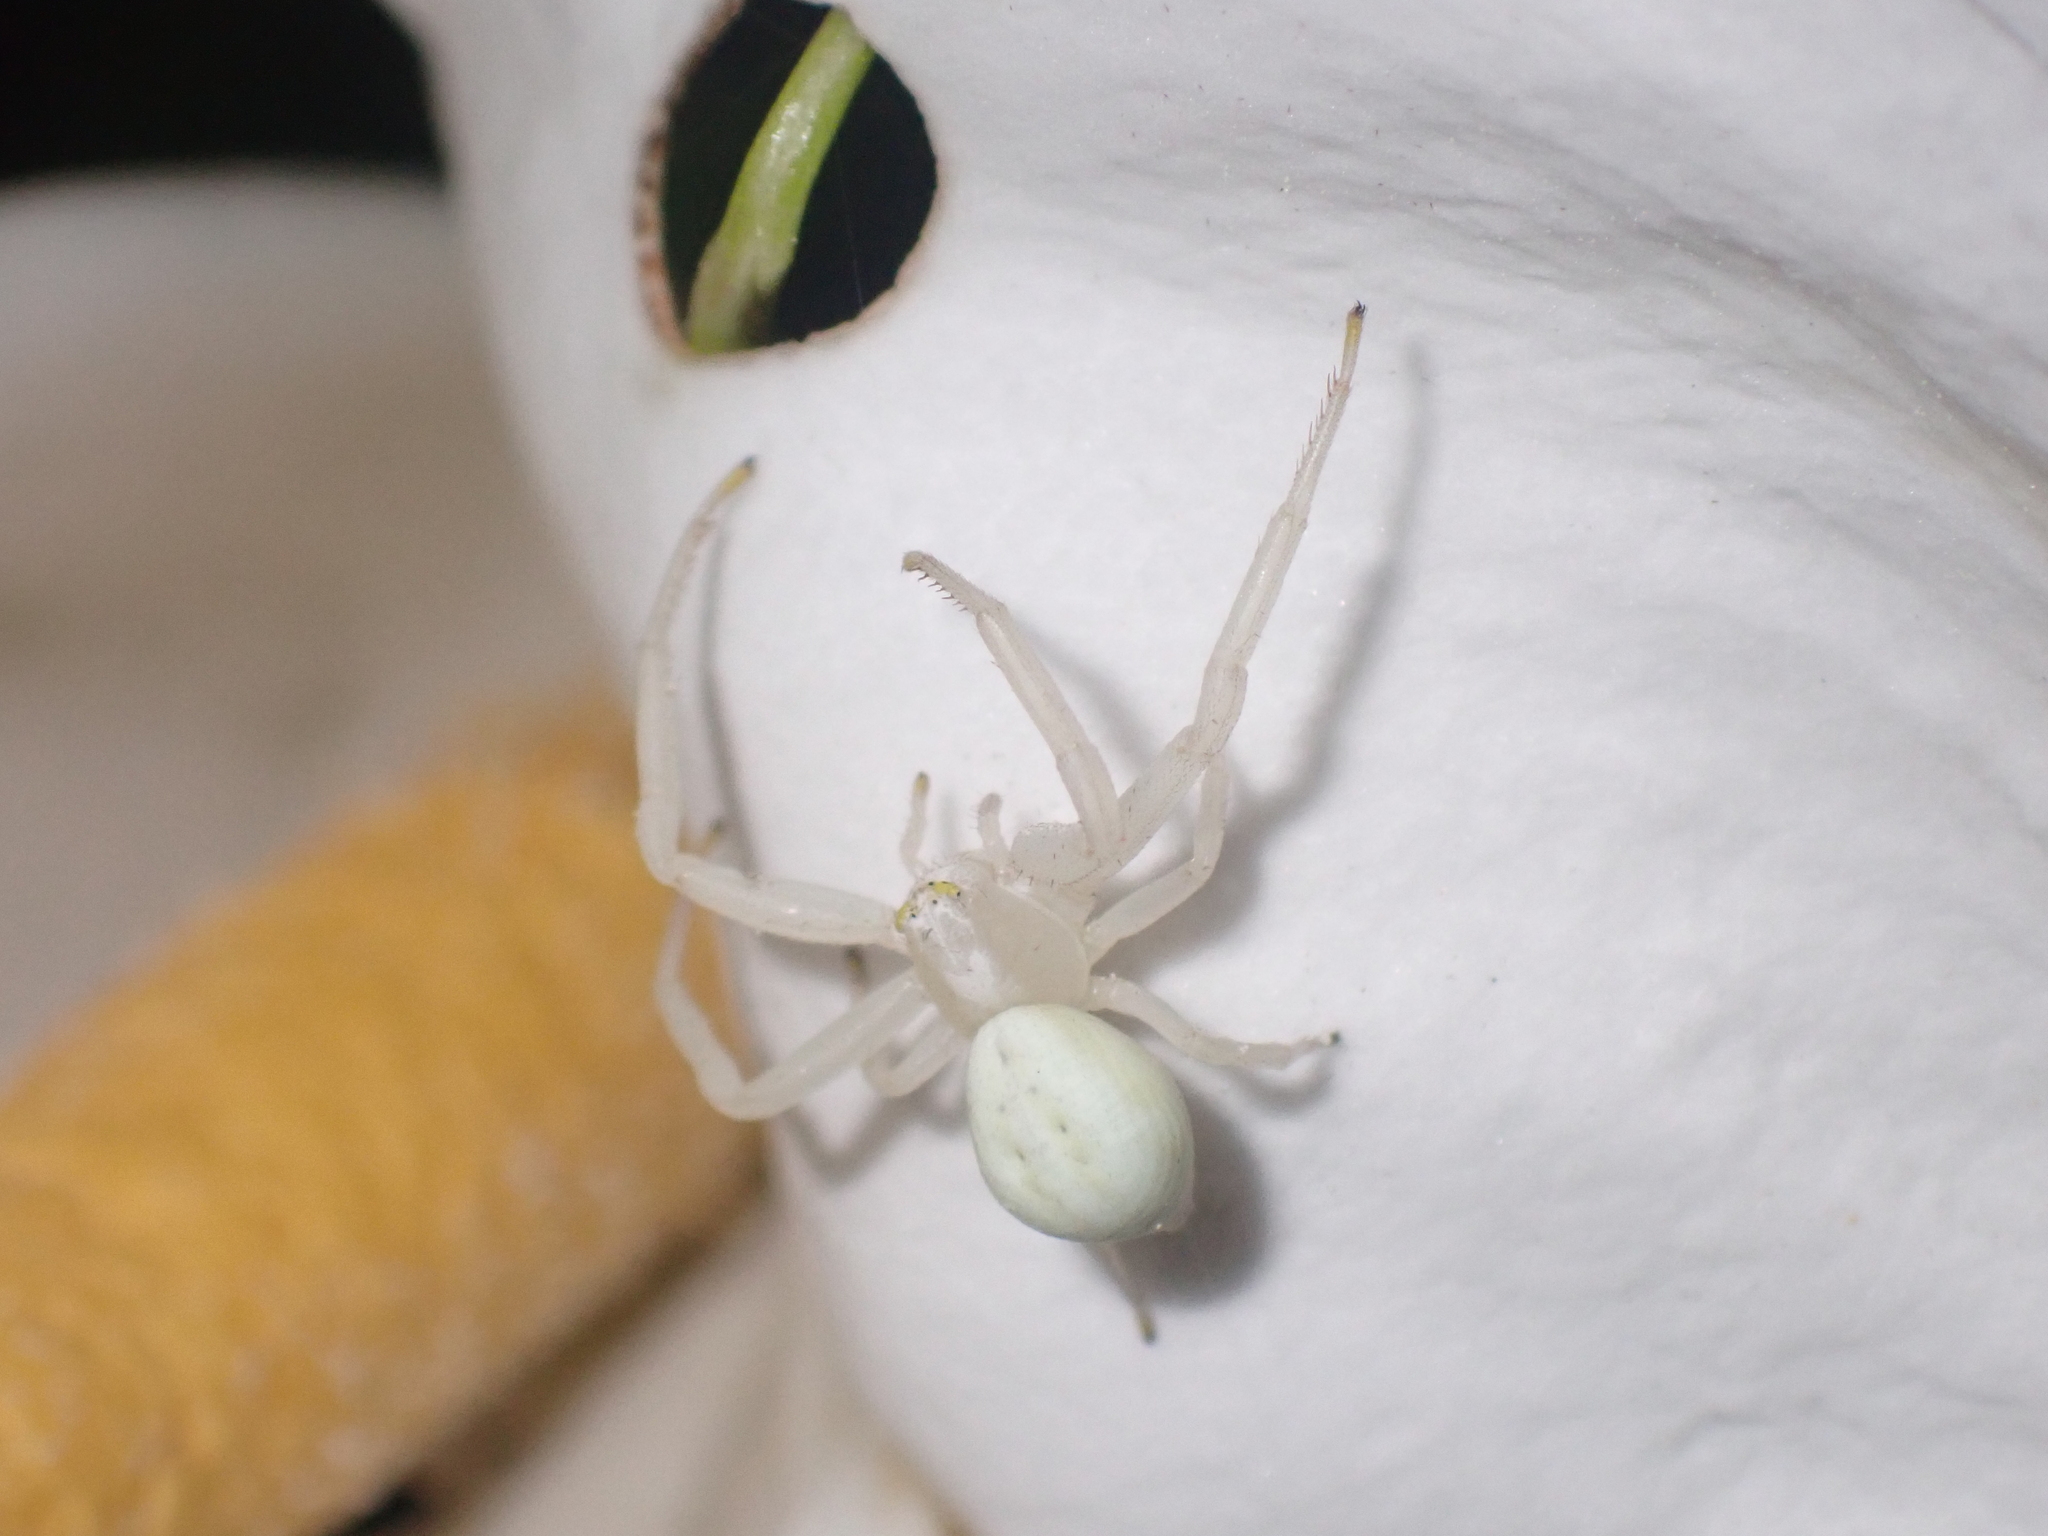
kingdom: Animalia
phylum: Arthropoda
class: Arachnida
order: Araneae
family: Thomisidae
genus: Misumena
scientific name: Misumena vatia
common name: Goldenrod crab spider
